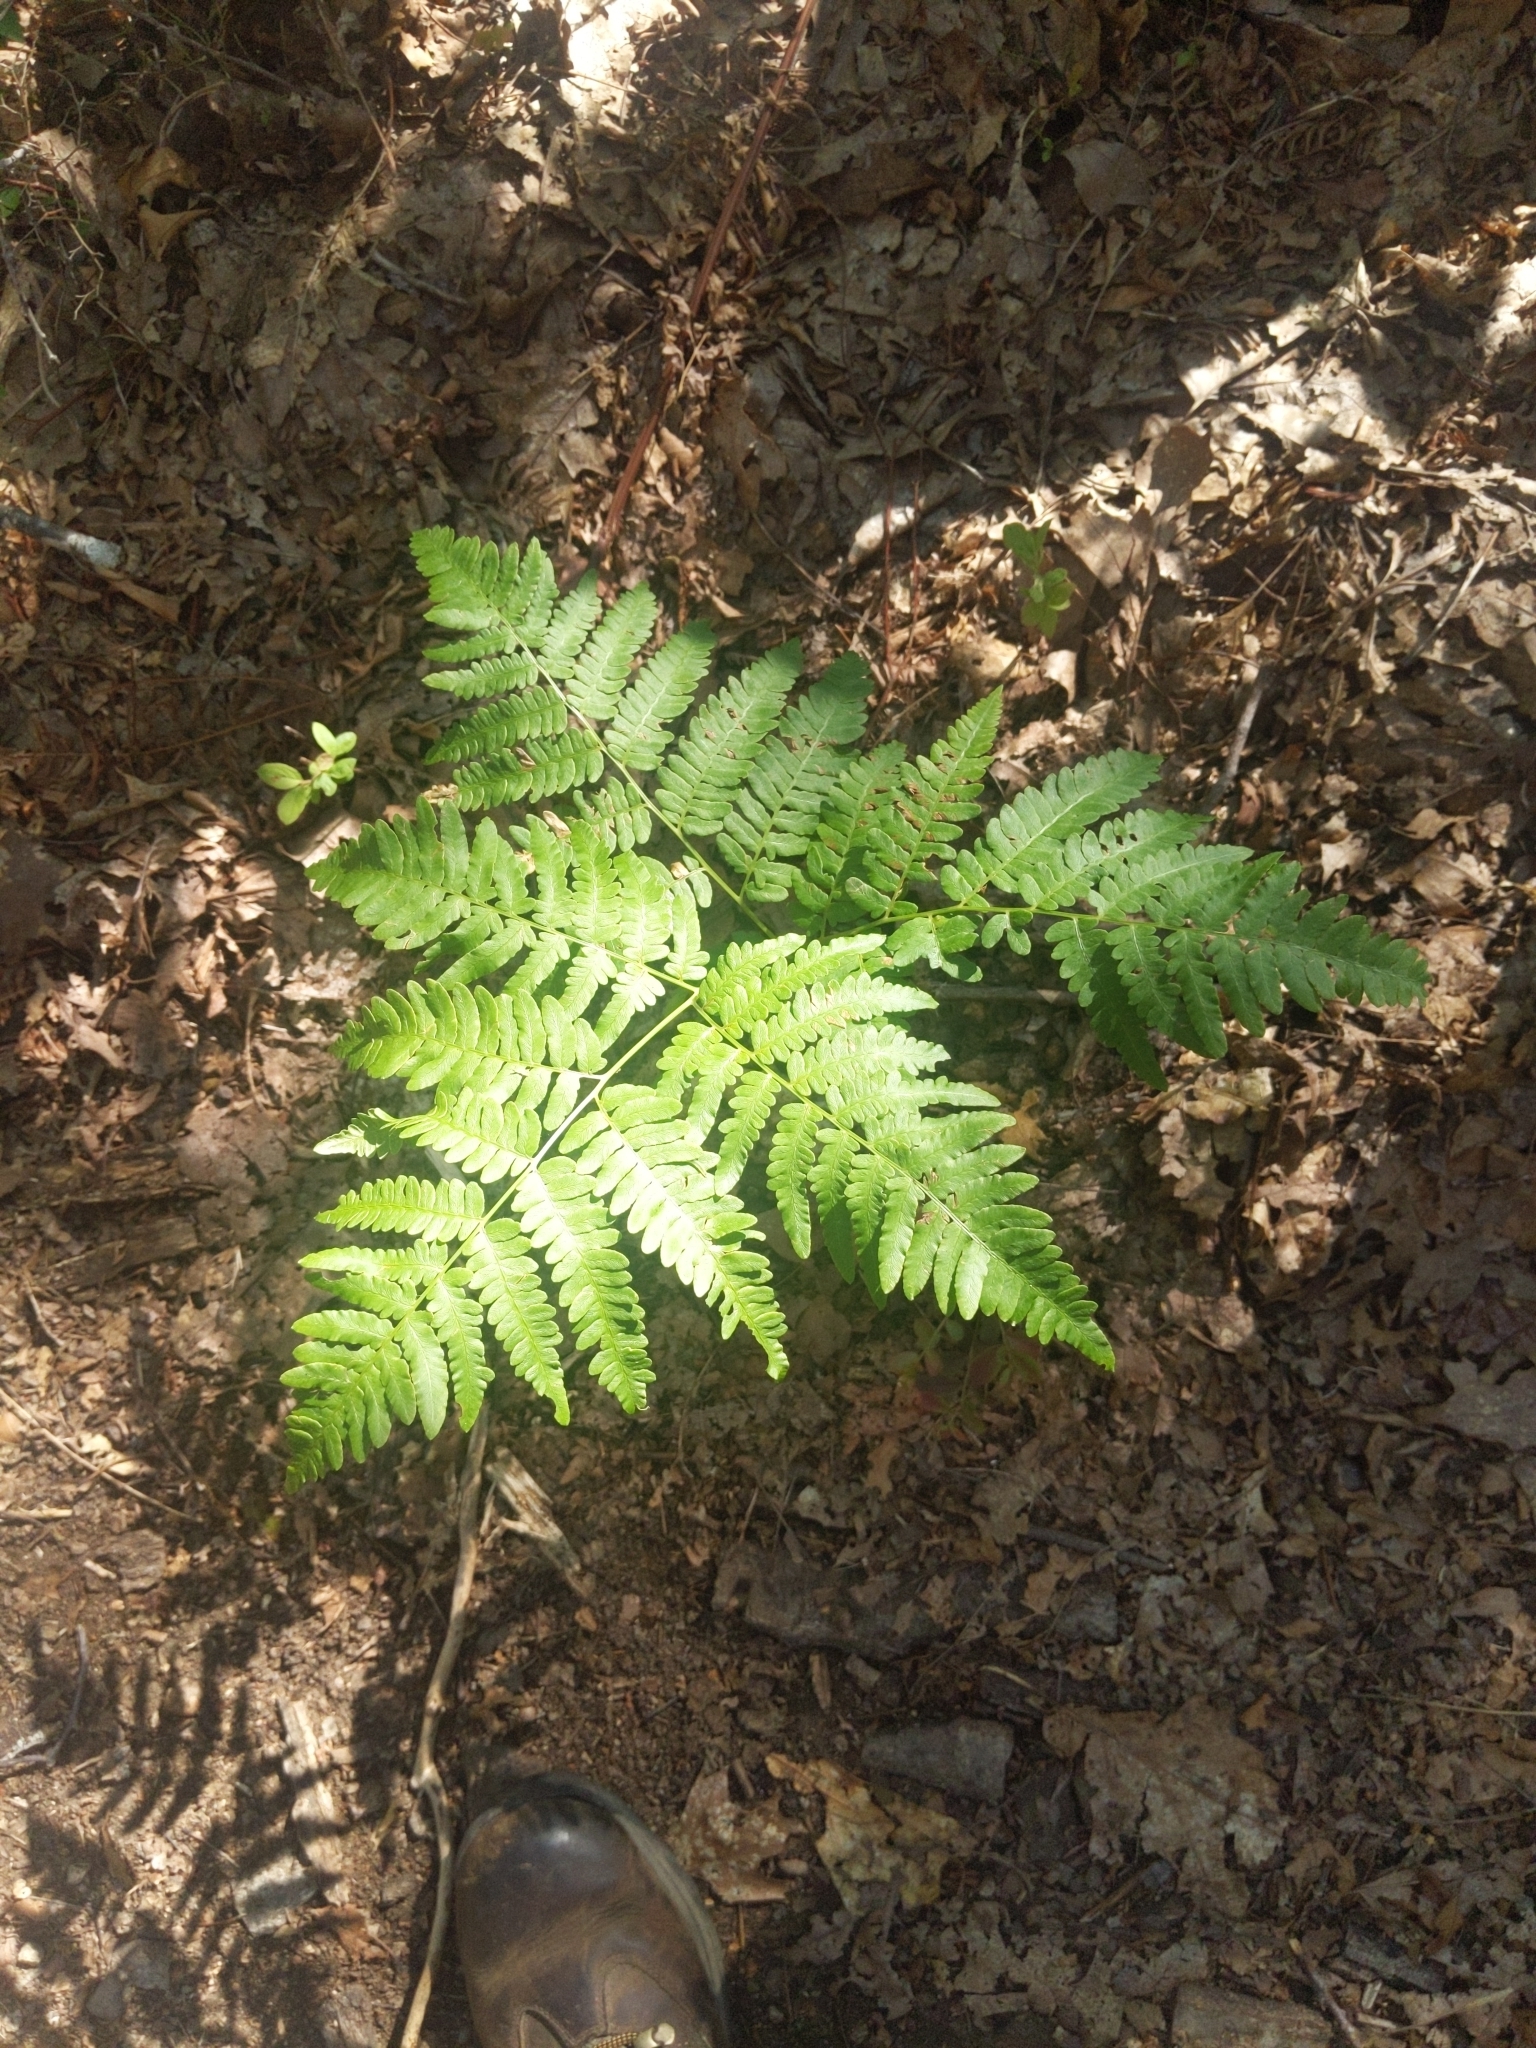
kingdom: Plantae
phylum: Tracheophyta
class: Polypodiopsida
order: Polypodiales
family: Dennstaedtiaceae
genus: Pteridium
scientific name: Pteridium aquilinum
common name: Bracken
